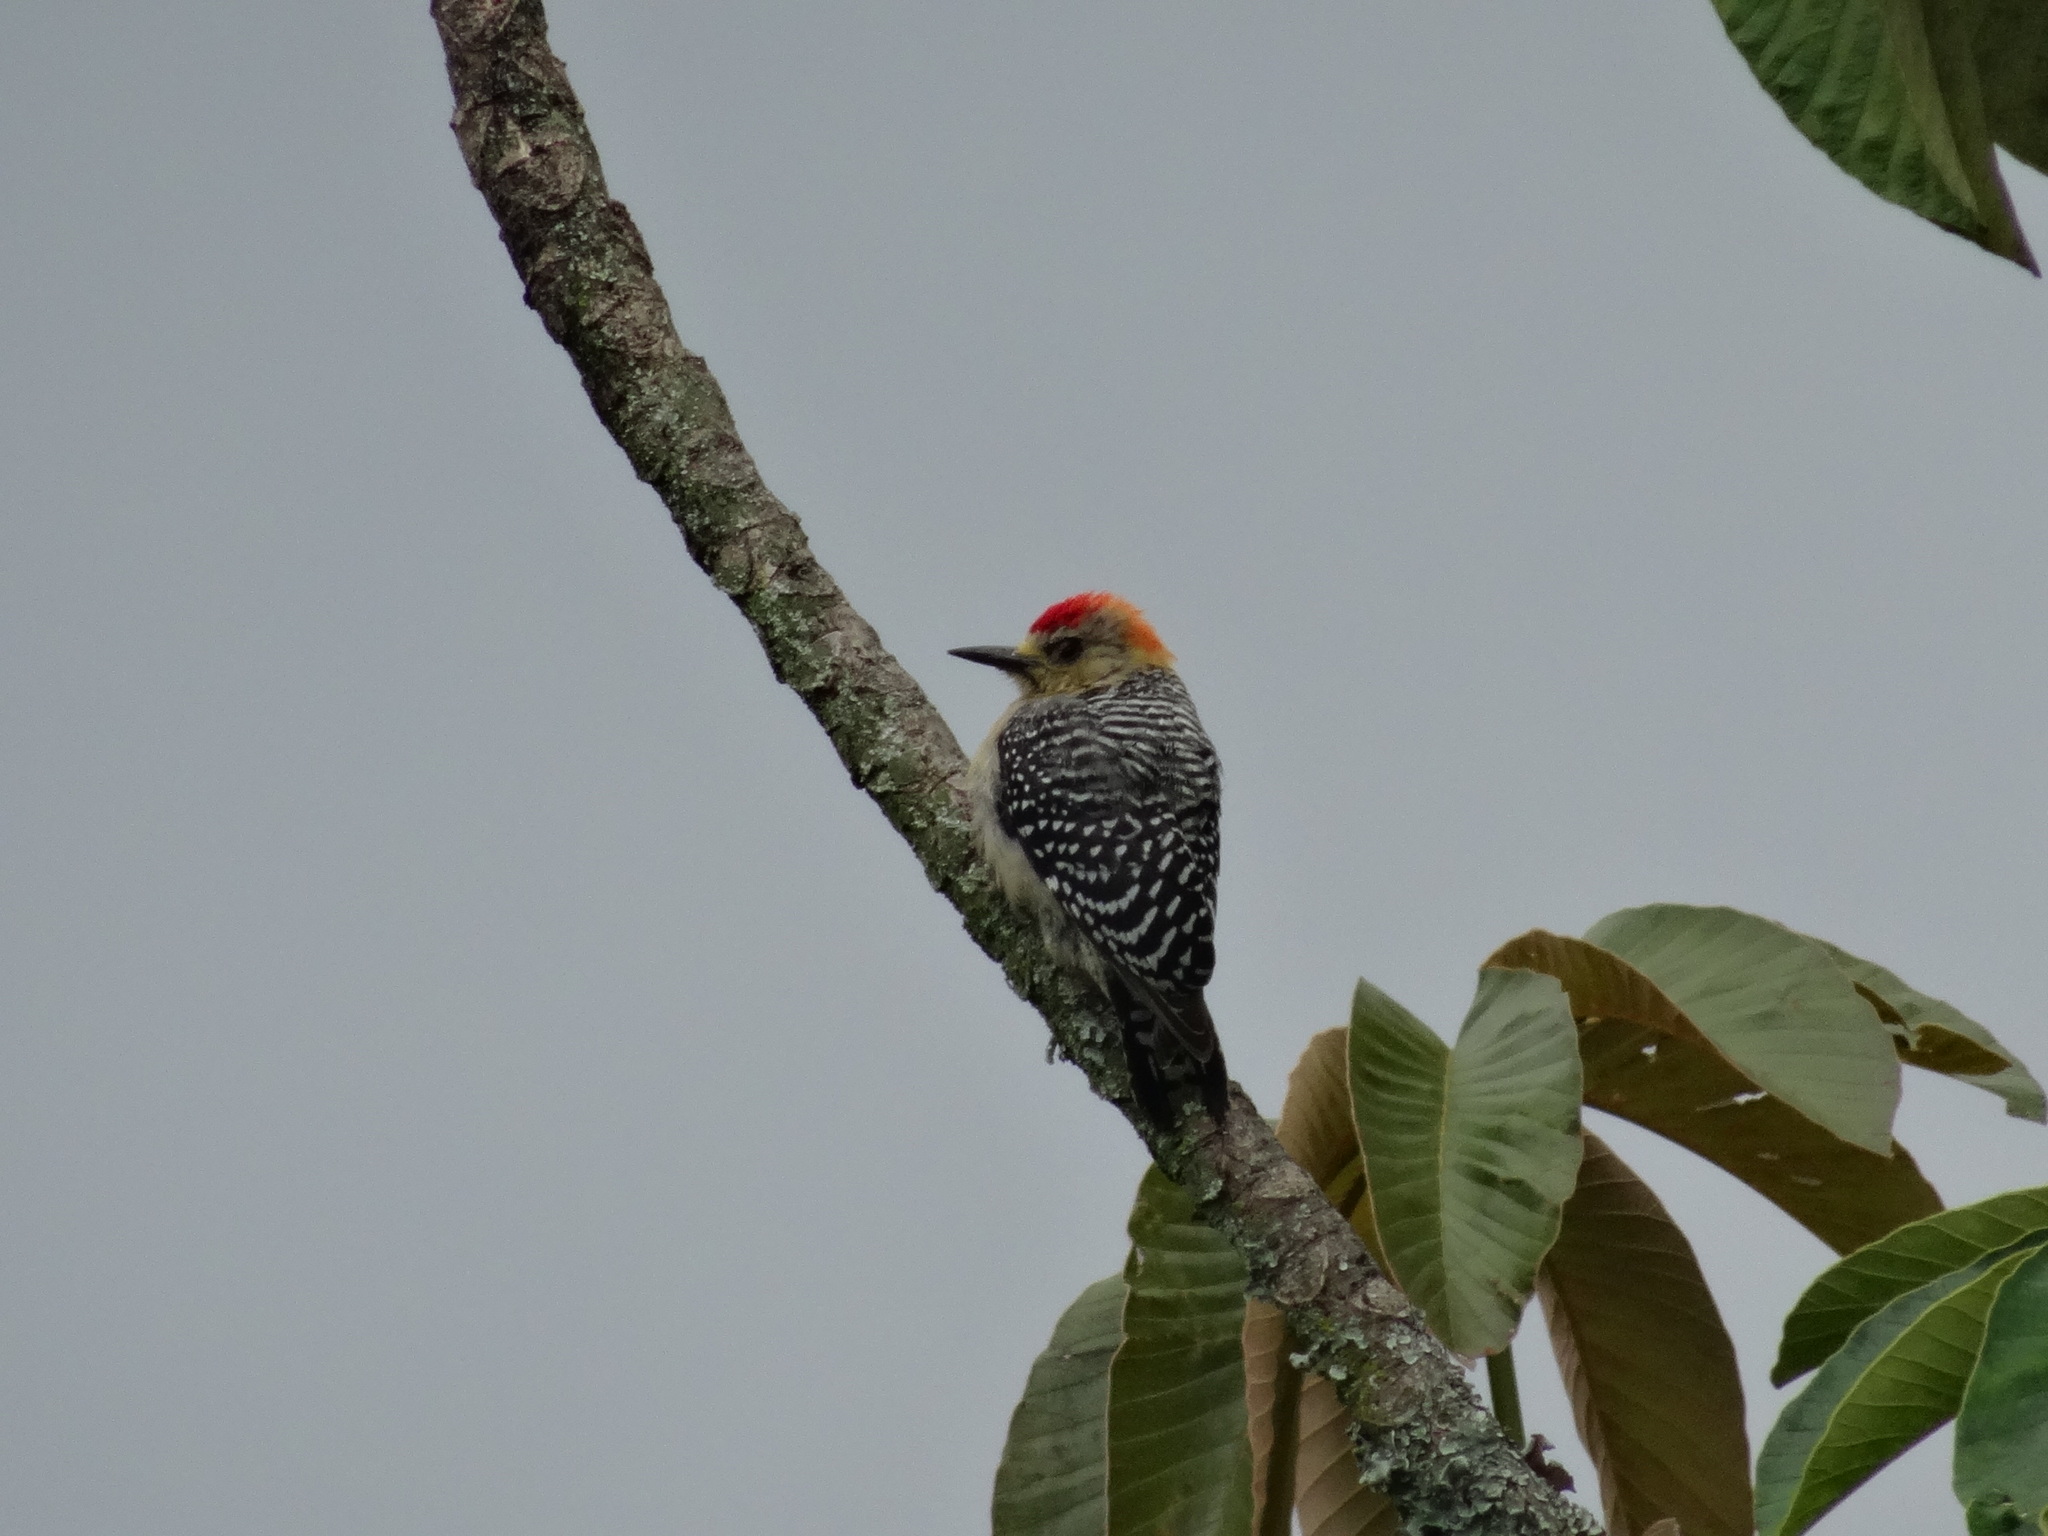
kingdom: Animalia
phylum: Chordata
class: Aves
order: Piciformes
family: Picidae
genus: Melanerpes
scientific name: Melanerpes rubricapillus
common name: Red-crowned woodpecker
